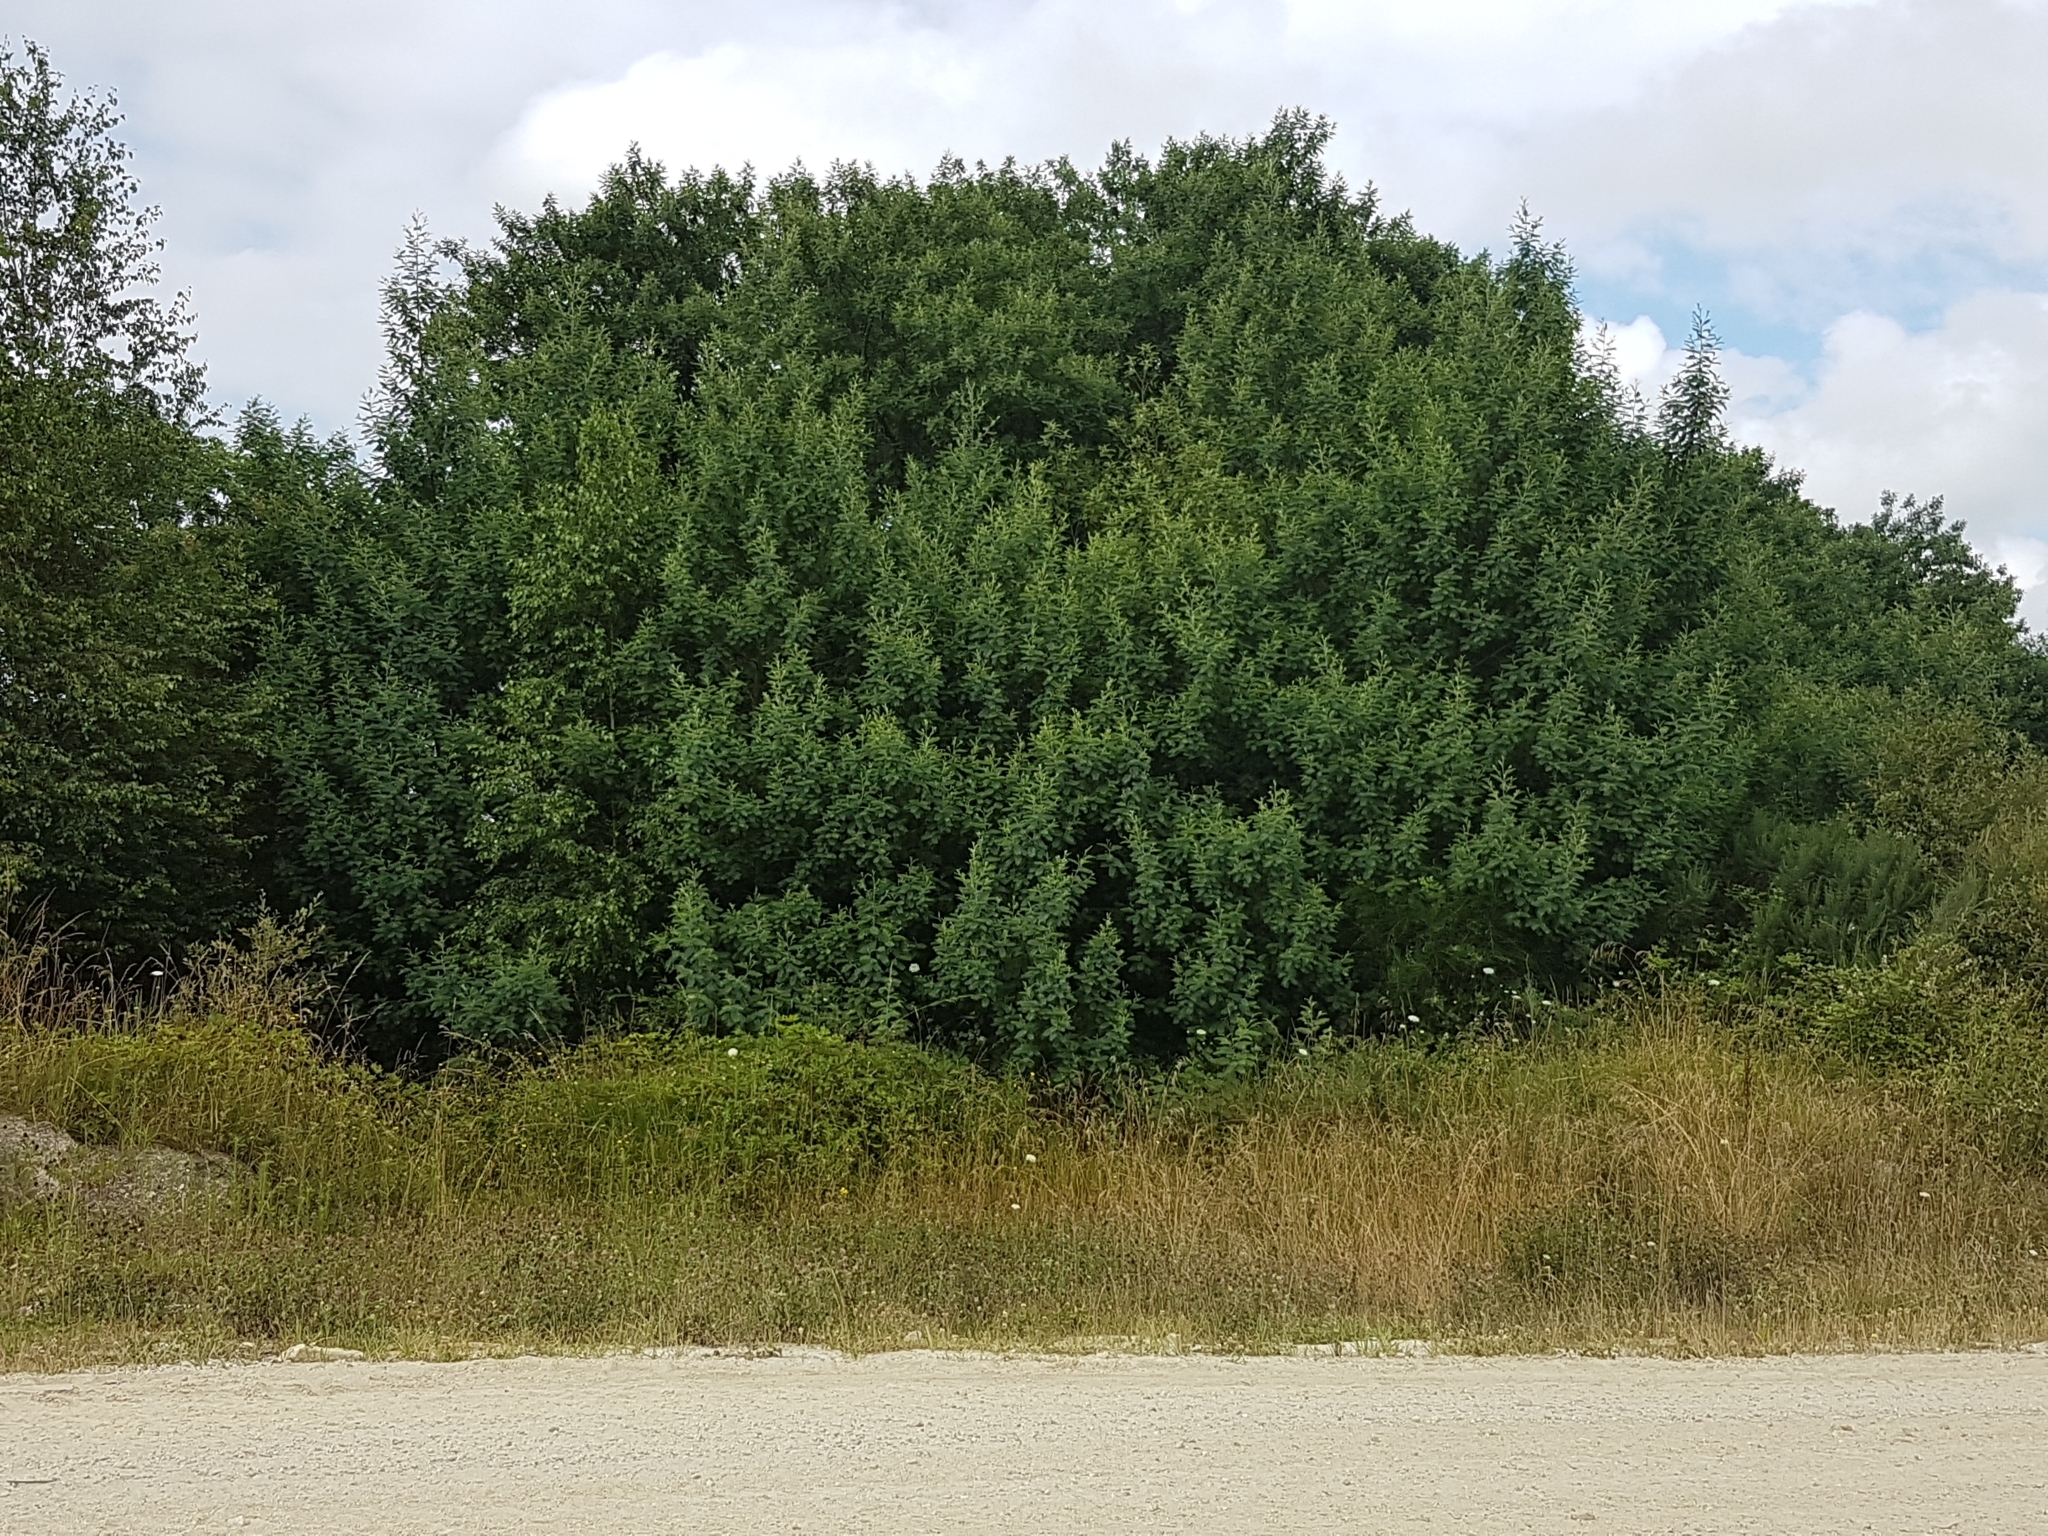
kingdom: Plantae
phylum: Tracheophyta
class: Magnoliopsida
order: Fabales
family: Fabaceae
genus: Acacia
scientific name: Acacia dealbata
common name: Silver wattle
